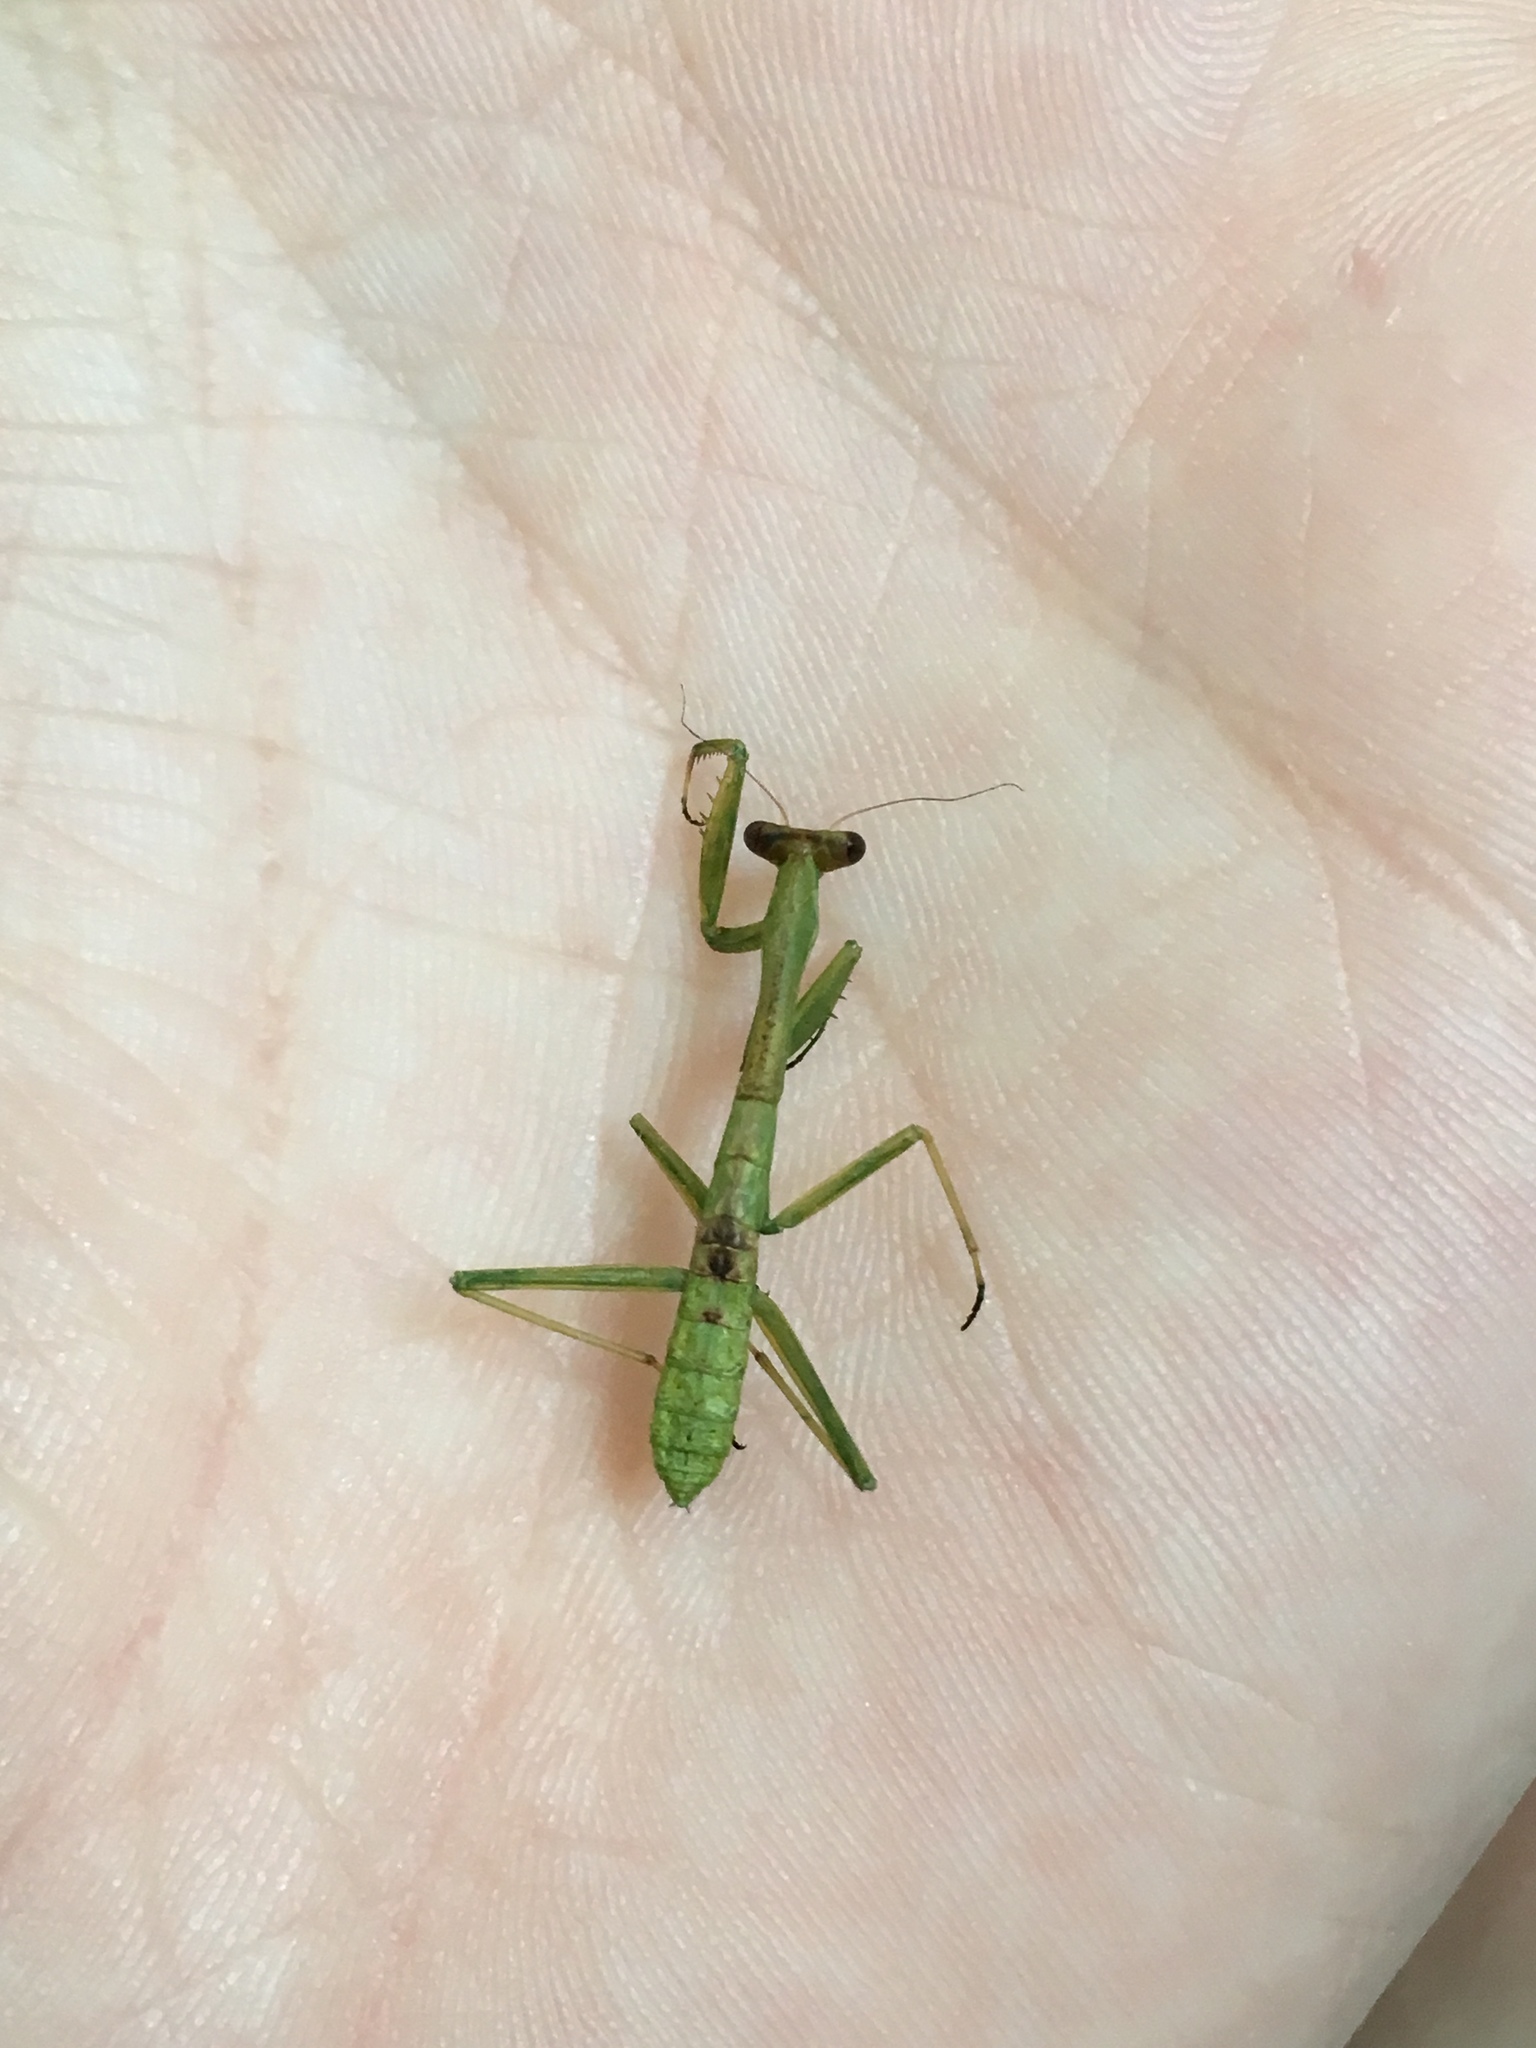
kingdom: Animalia
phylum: Arthropoda
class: Insecta
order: Mantodea
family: Mantidae
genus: Stagmomantis
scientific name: Stagmomantis carolina
